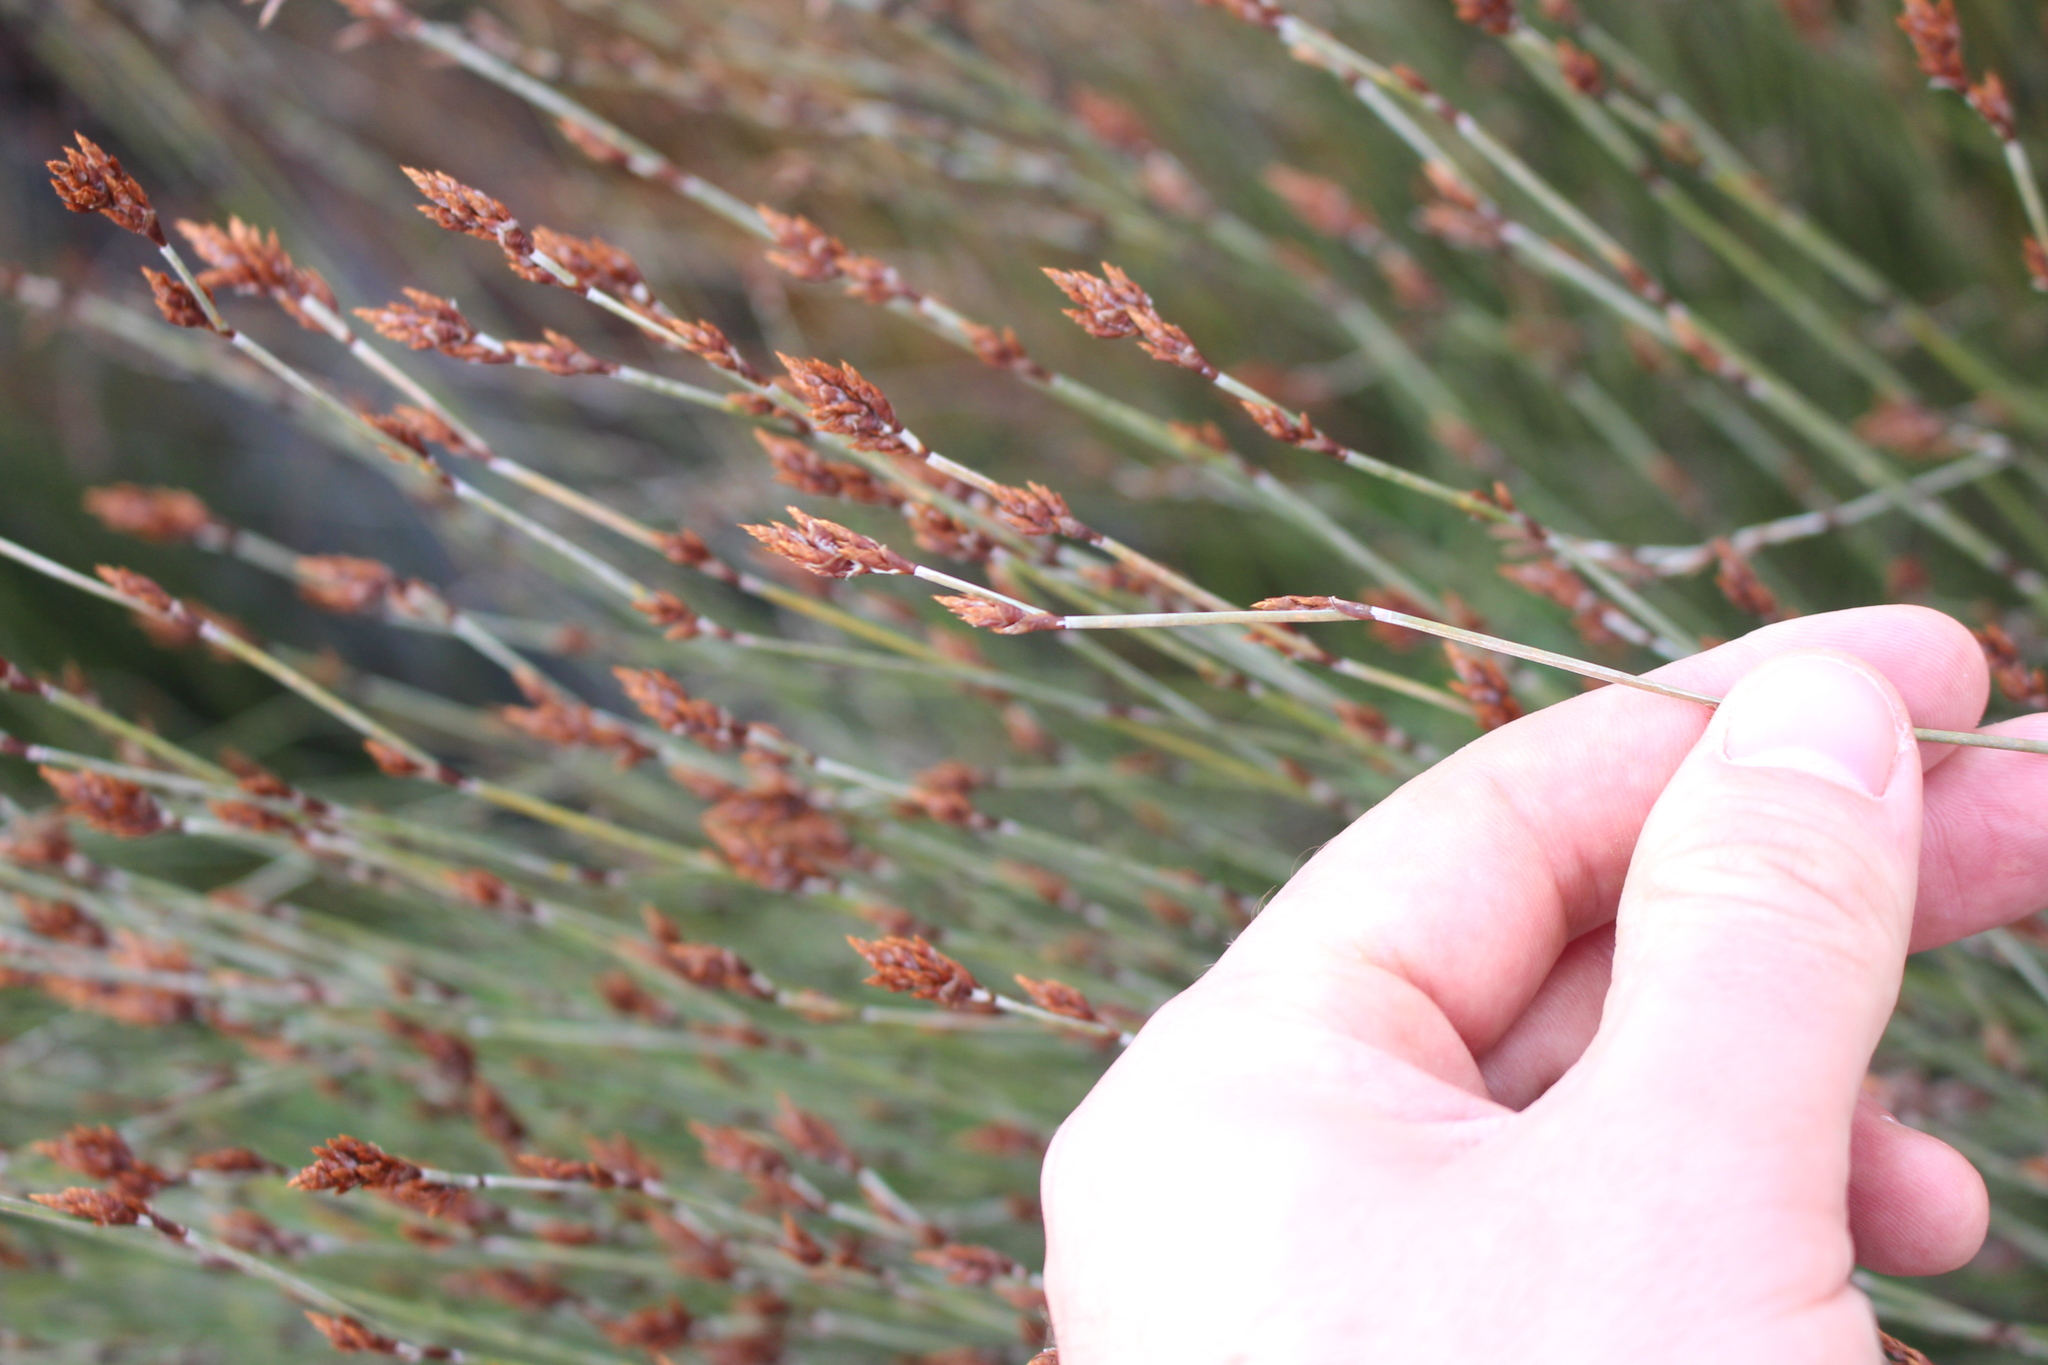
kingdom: Plantae
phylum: Tracheophyta
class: Liliopsida
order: Poales
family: Restionaceae
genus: Apodasmia
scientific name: Apodasmia similis
